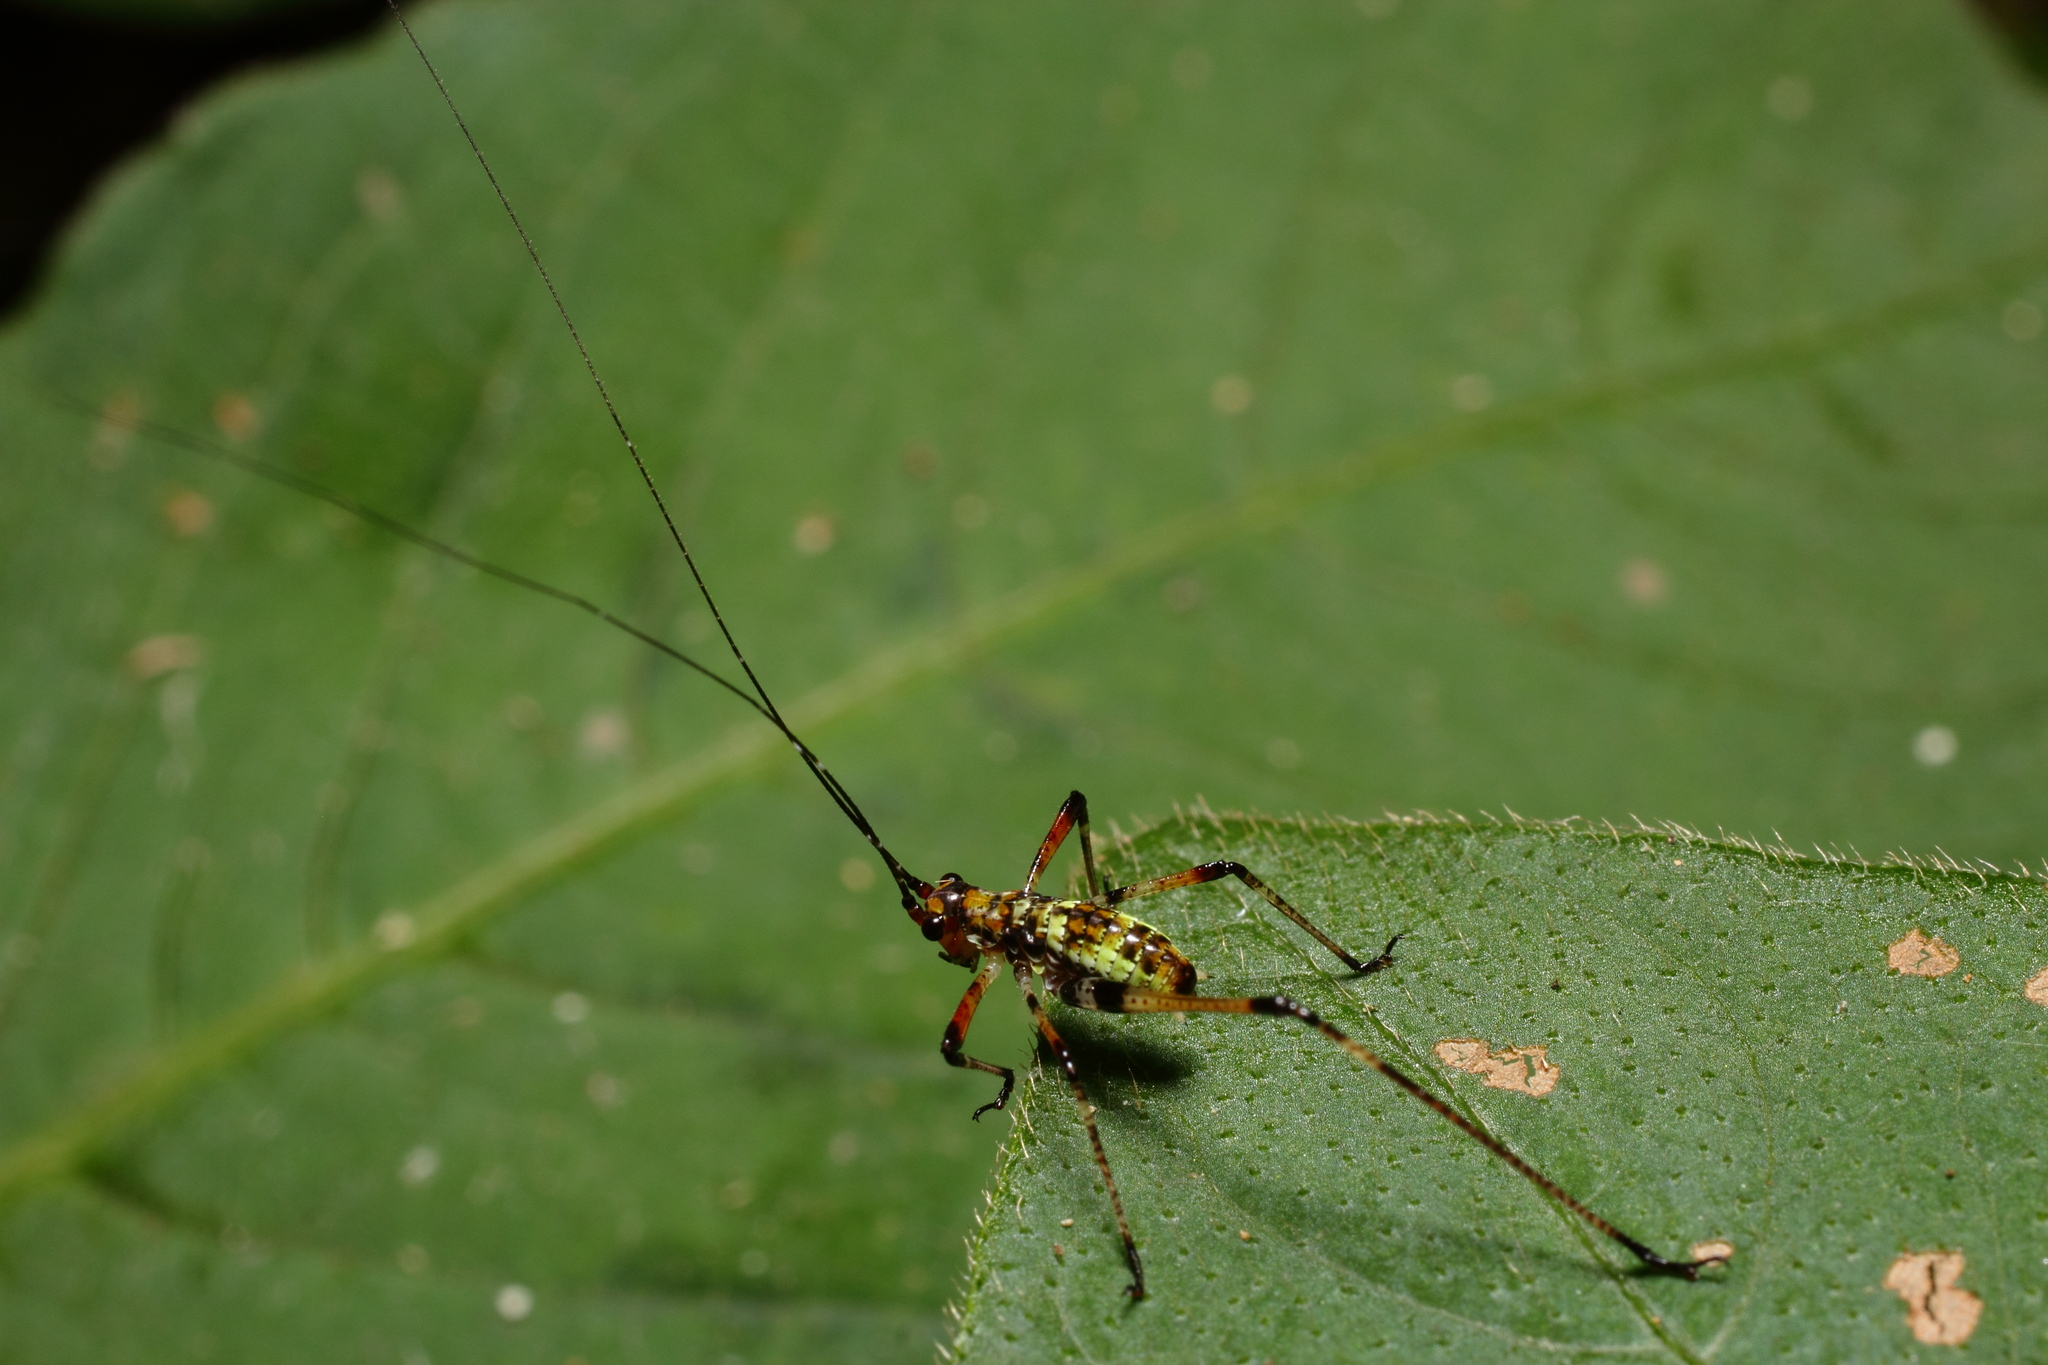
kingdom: Animalia
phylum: Arthropoda
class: Insecta
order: Orthoptera
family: Tettigoniidae
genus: Phaneroptera
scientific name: Phaneroptera nigroantennata
